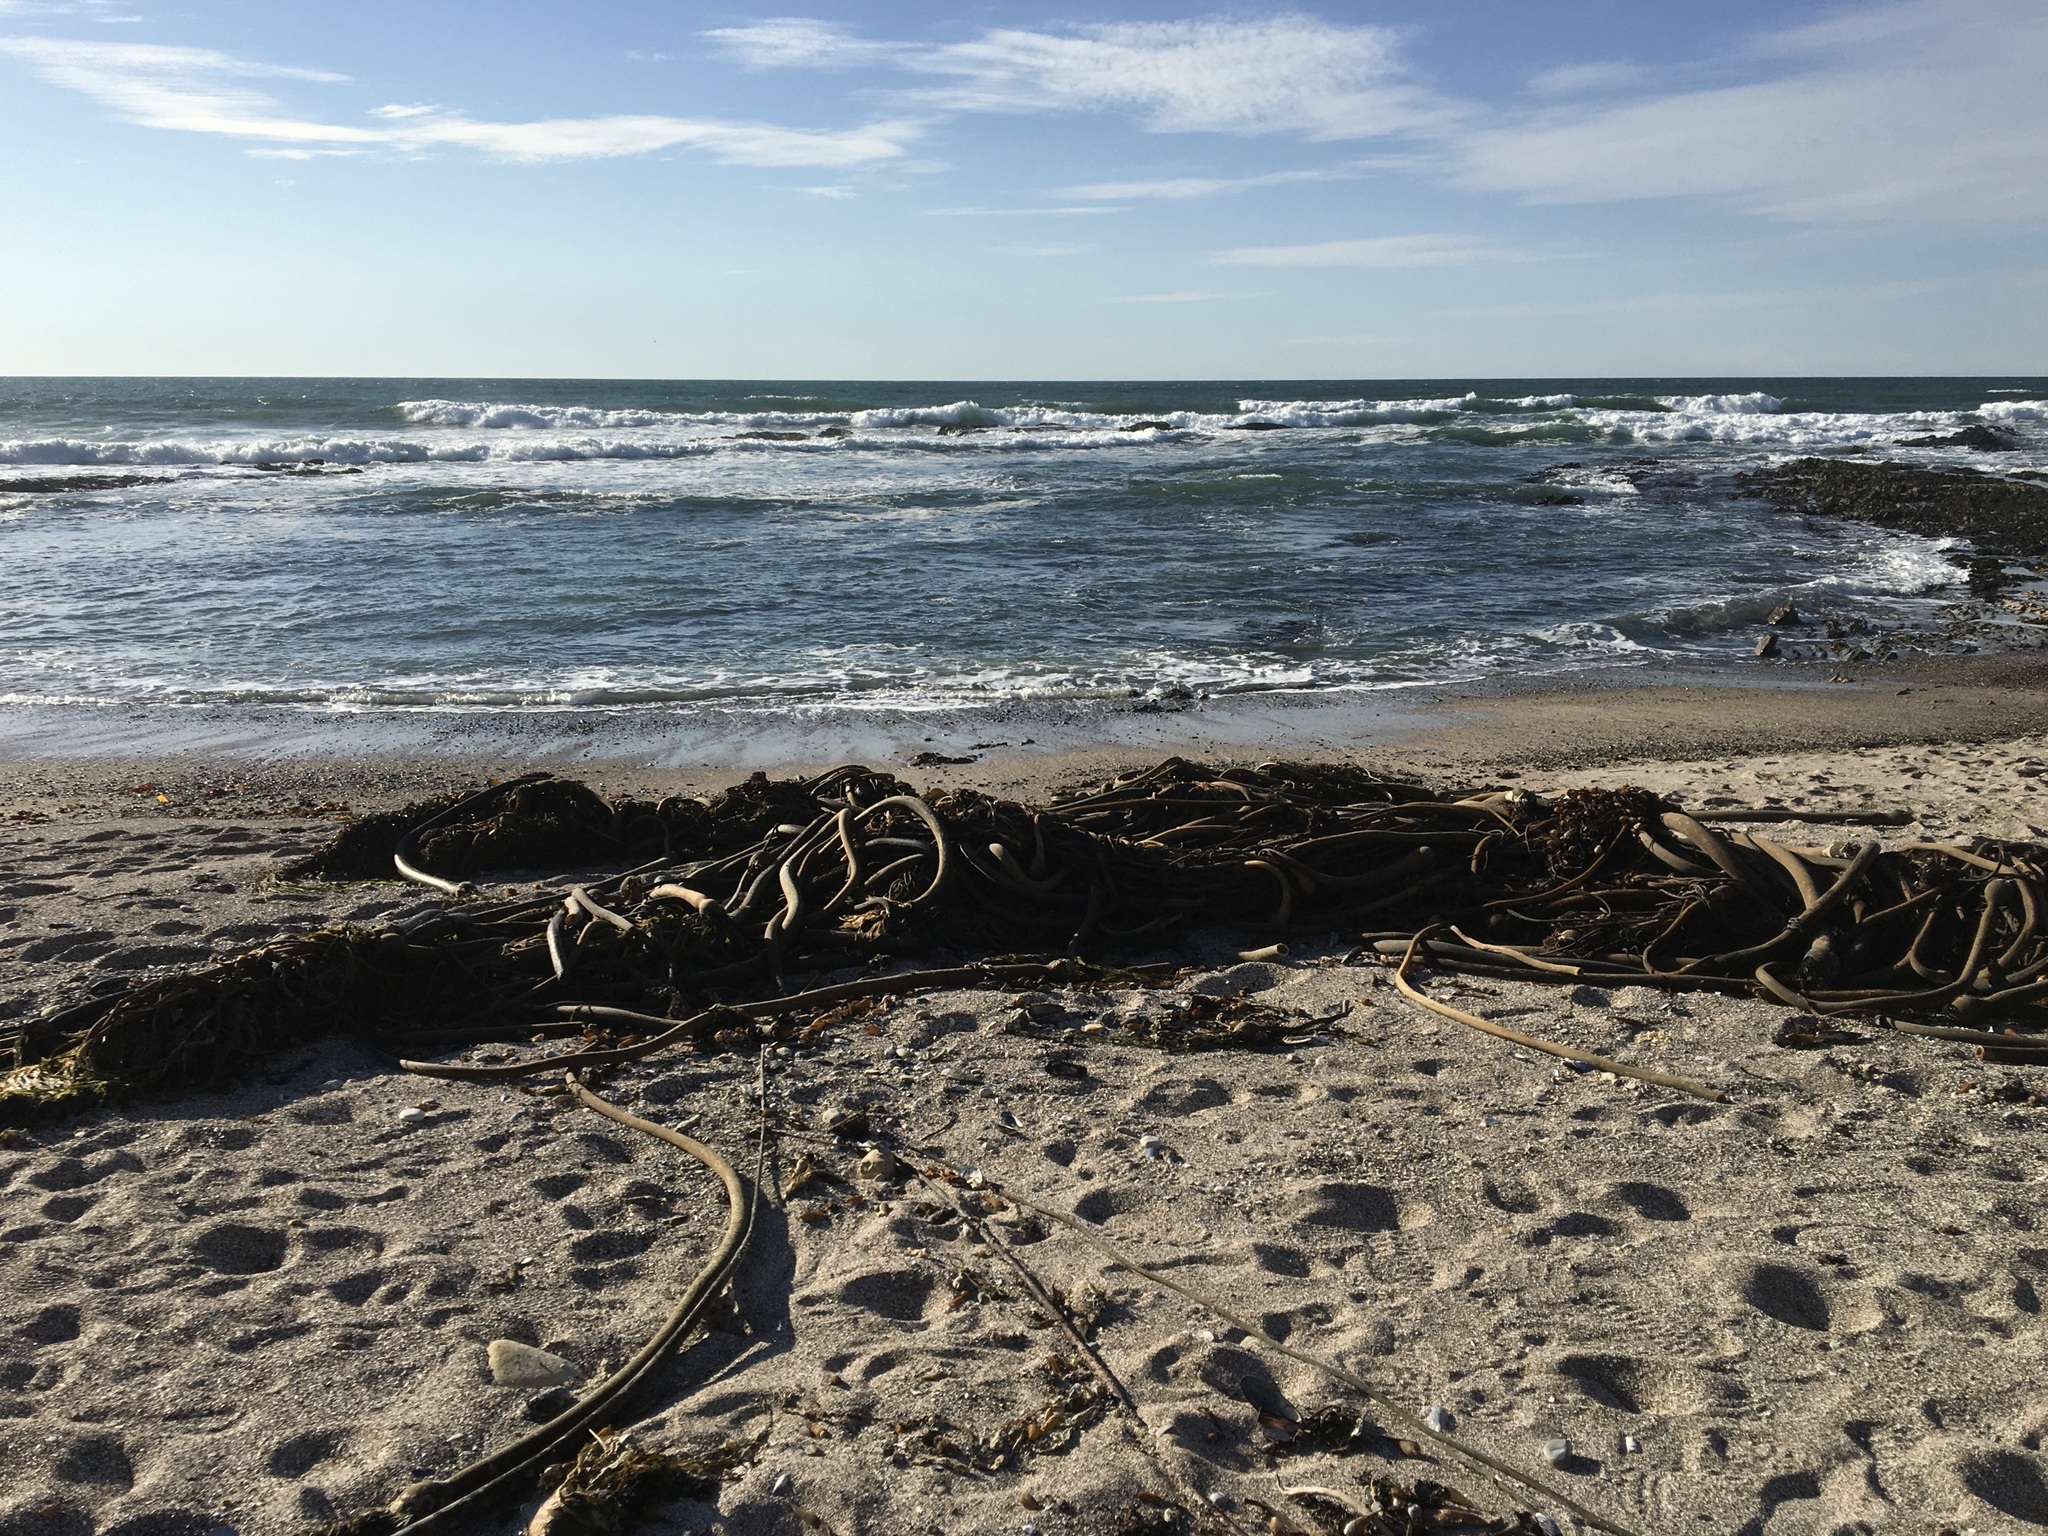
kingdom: Chromista
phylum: Ochrophyta
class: Phaeophyceae
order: Laminariales
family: Laminariaceae
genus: Nereocystis
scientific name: Nereocystis luetkeana
